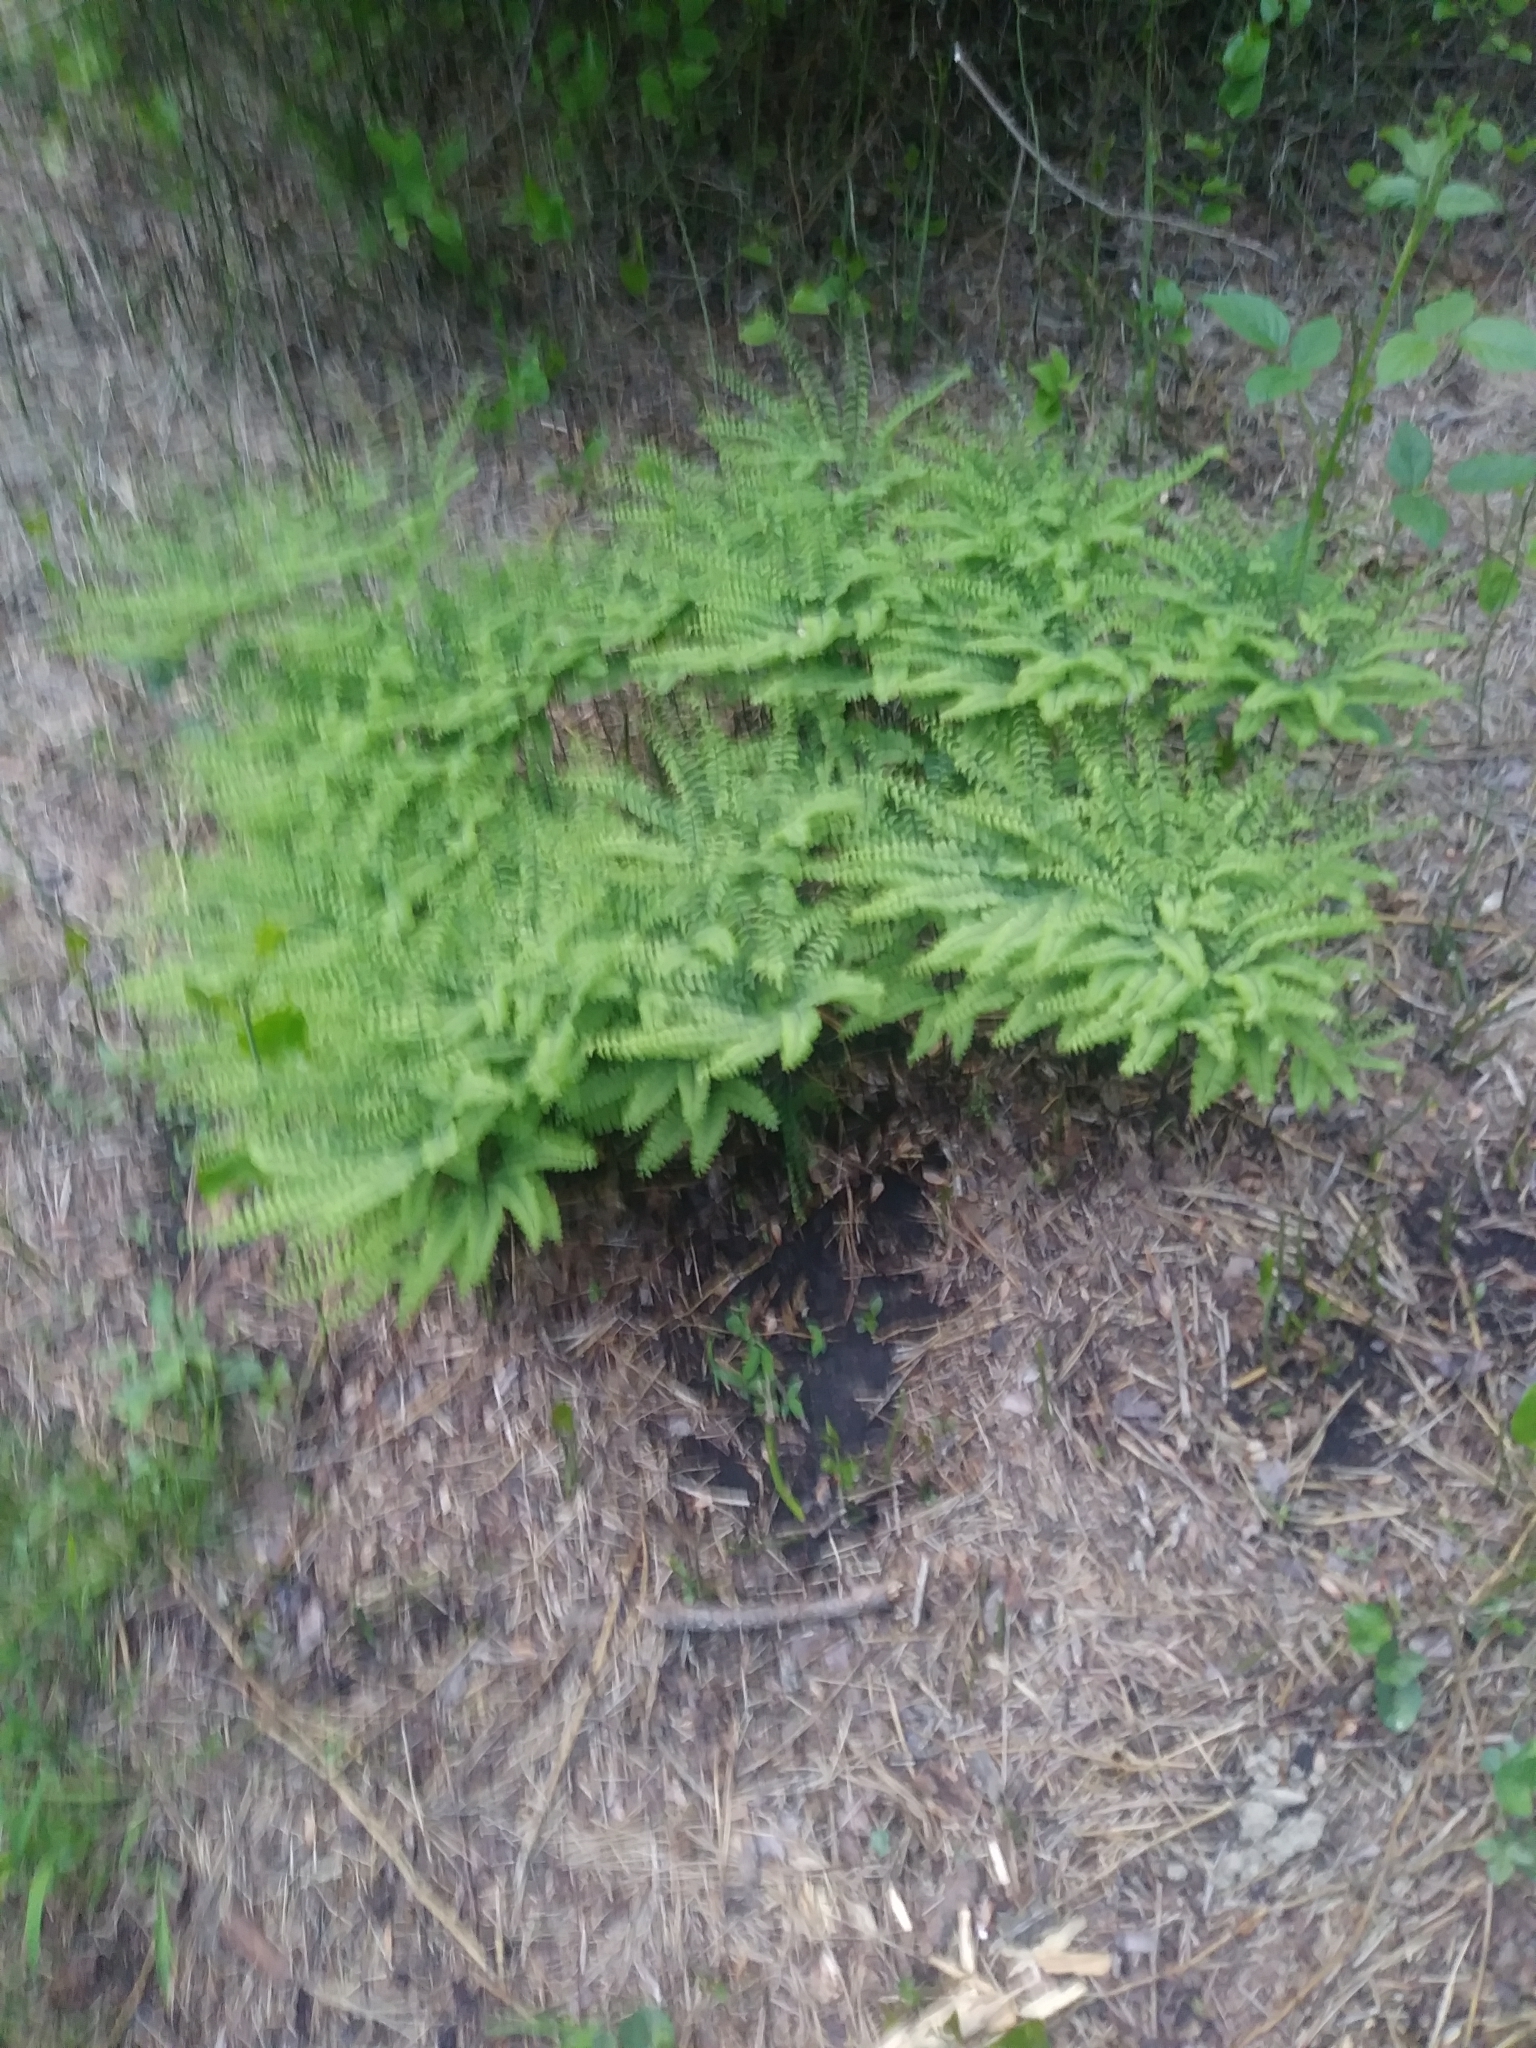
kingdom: Plantae
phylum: Tracheophyta
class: Polypodiopsida
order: Polypodiales
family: Pteridaceae
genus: Adiantum
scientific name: Adiantum pedatum
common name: Five-finger fern
